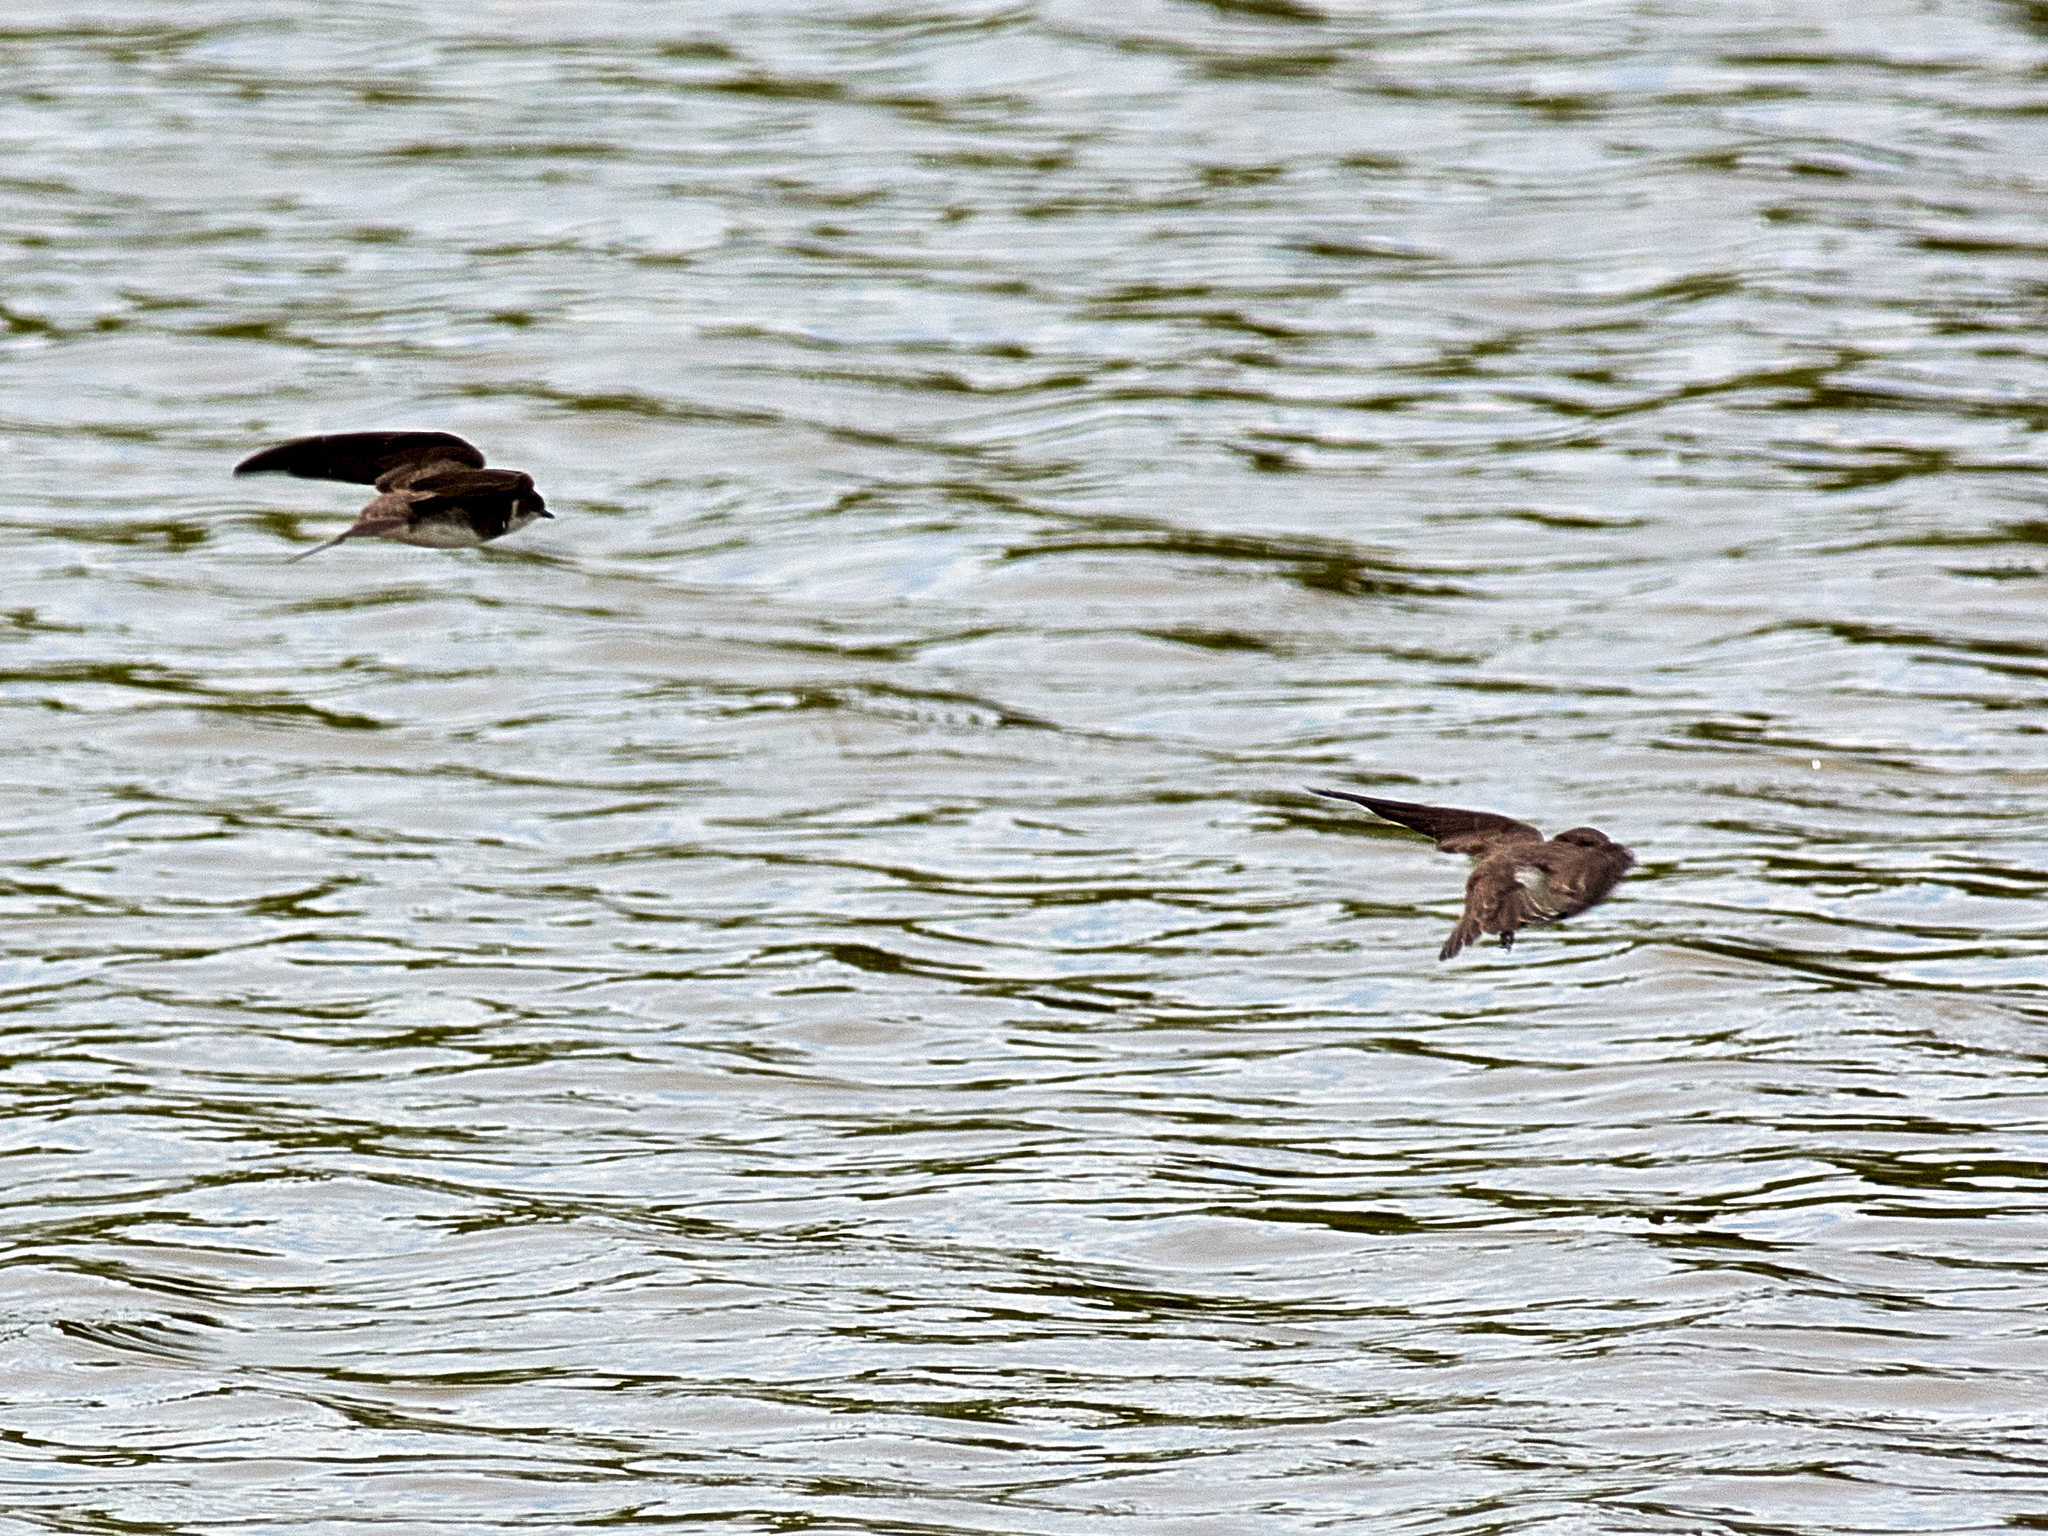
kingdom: Animalia
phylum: Chordata
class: Aves
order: Passeriformes
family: Hirundinidae
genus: Riparia
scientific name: Riparia riparia
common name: Sand martin
